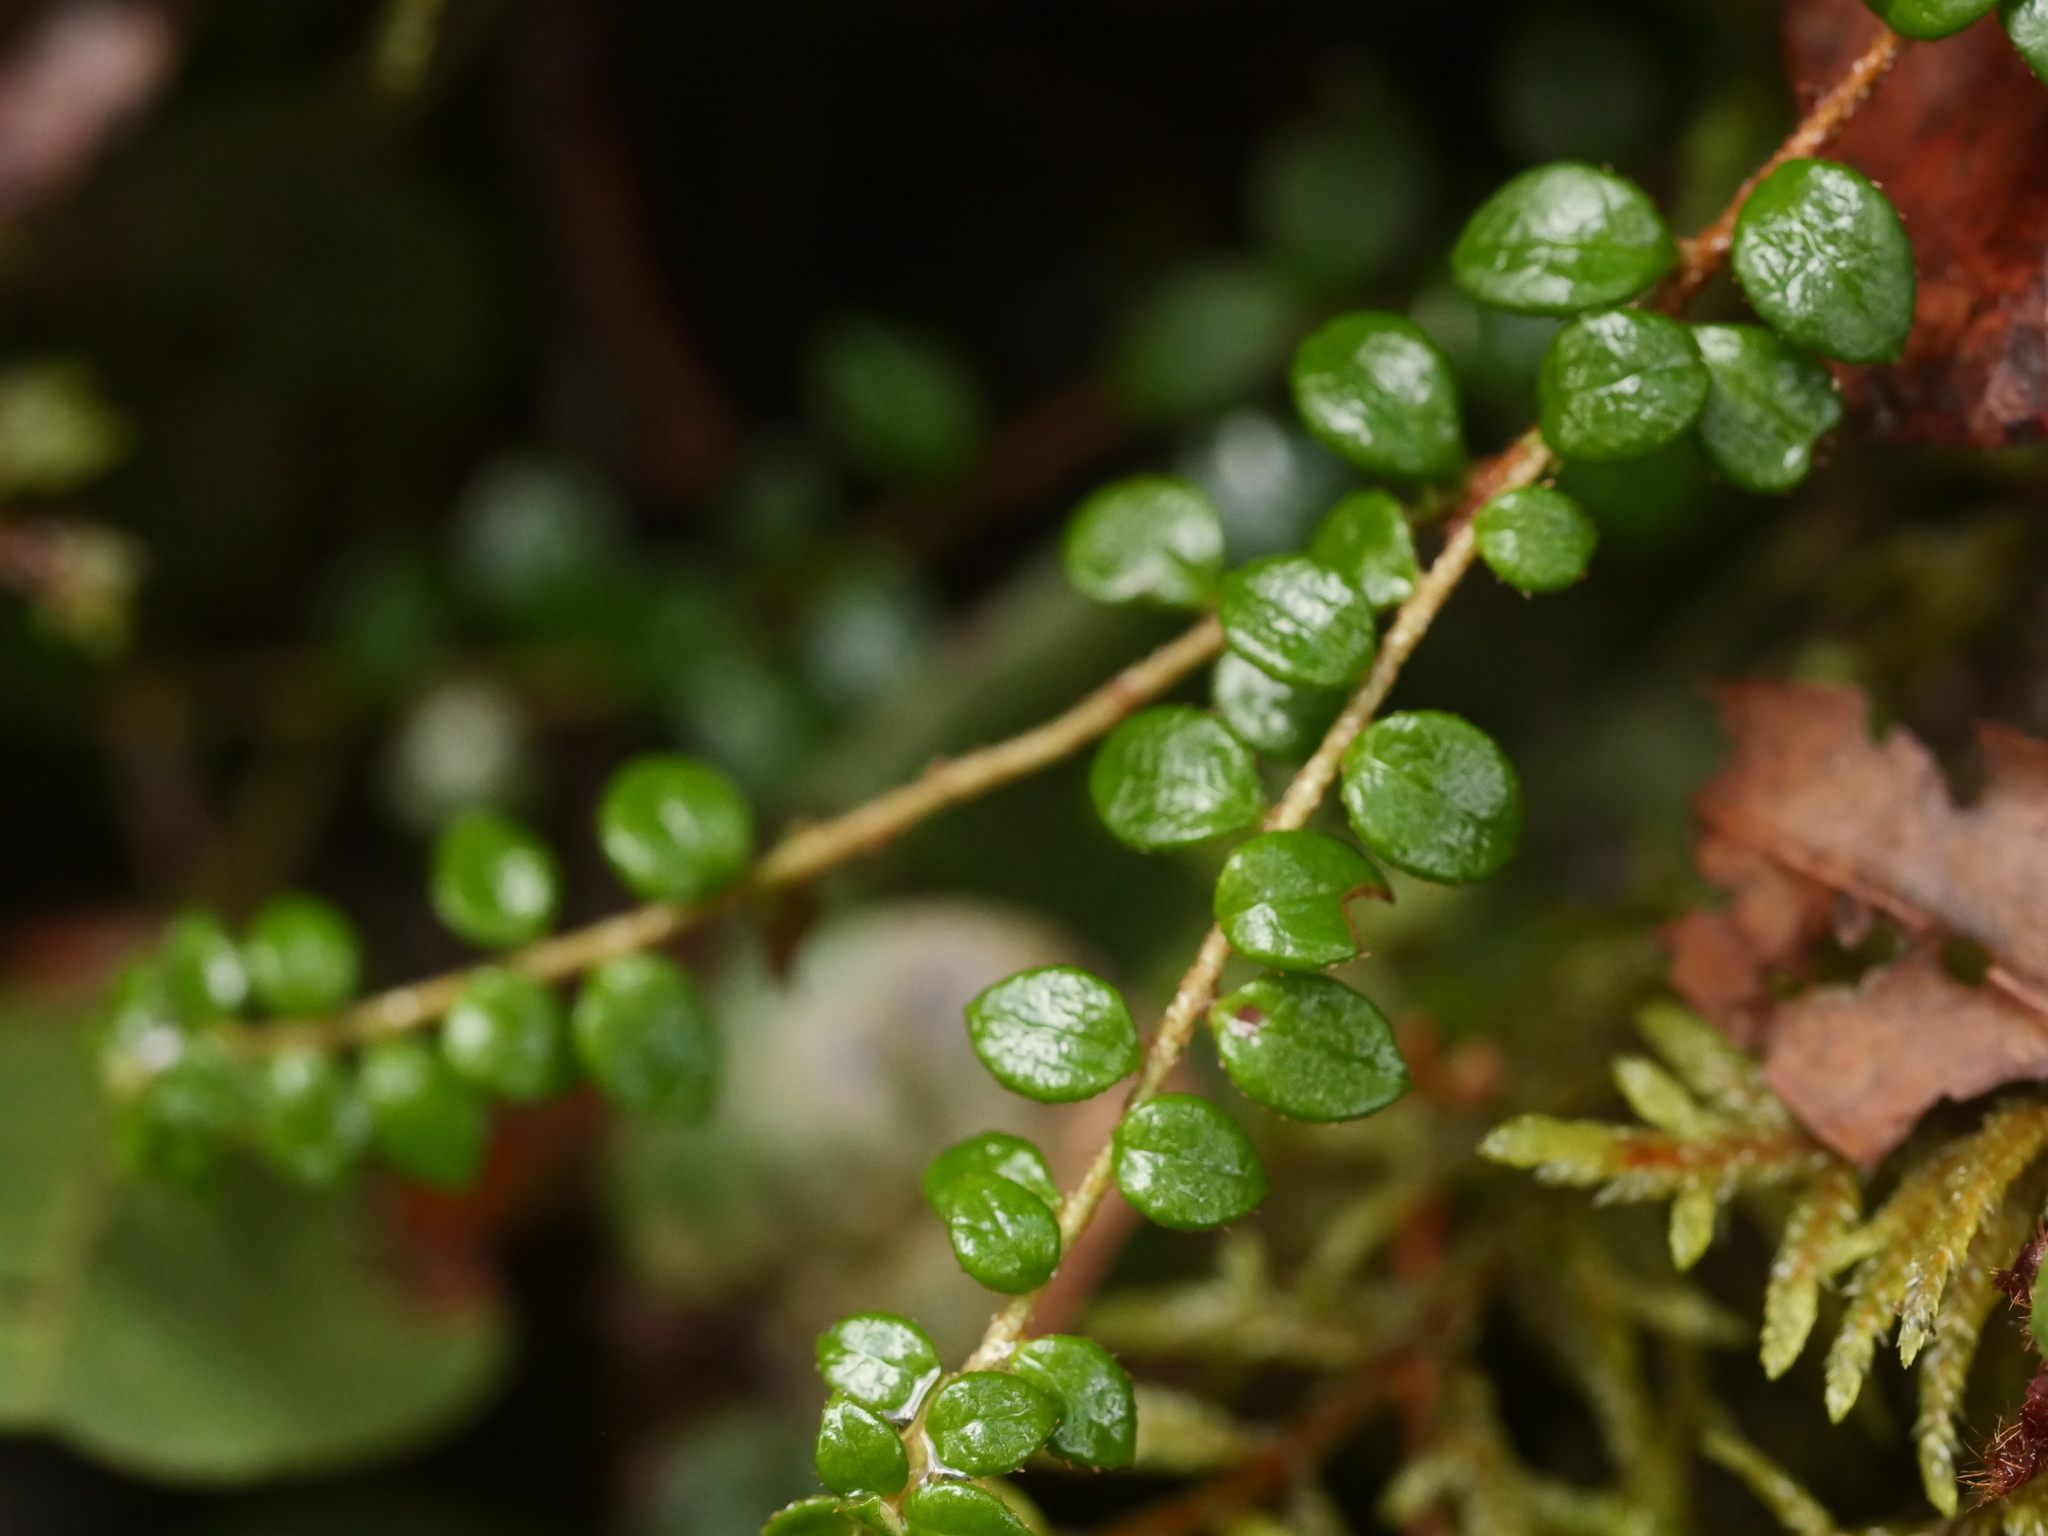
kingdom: Plantae
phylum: Tracheophyta
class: Magnoliopsida
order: Ericales
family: Ericaceae
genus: Gaultheria
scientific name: Gaultheria hispidula
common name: Cancer wintergreen
